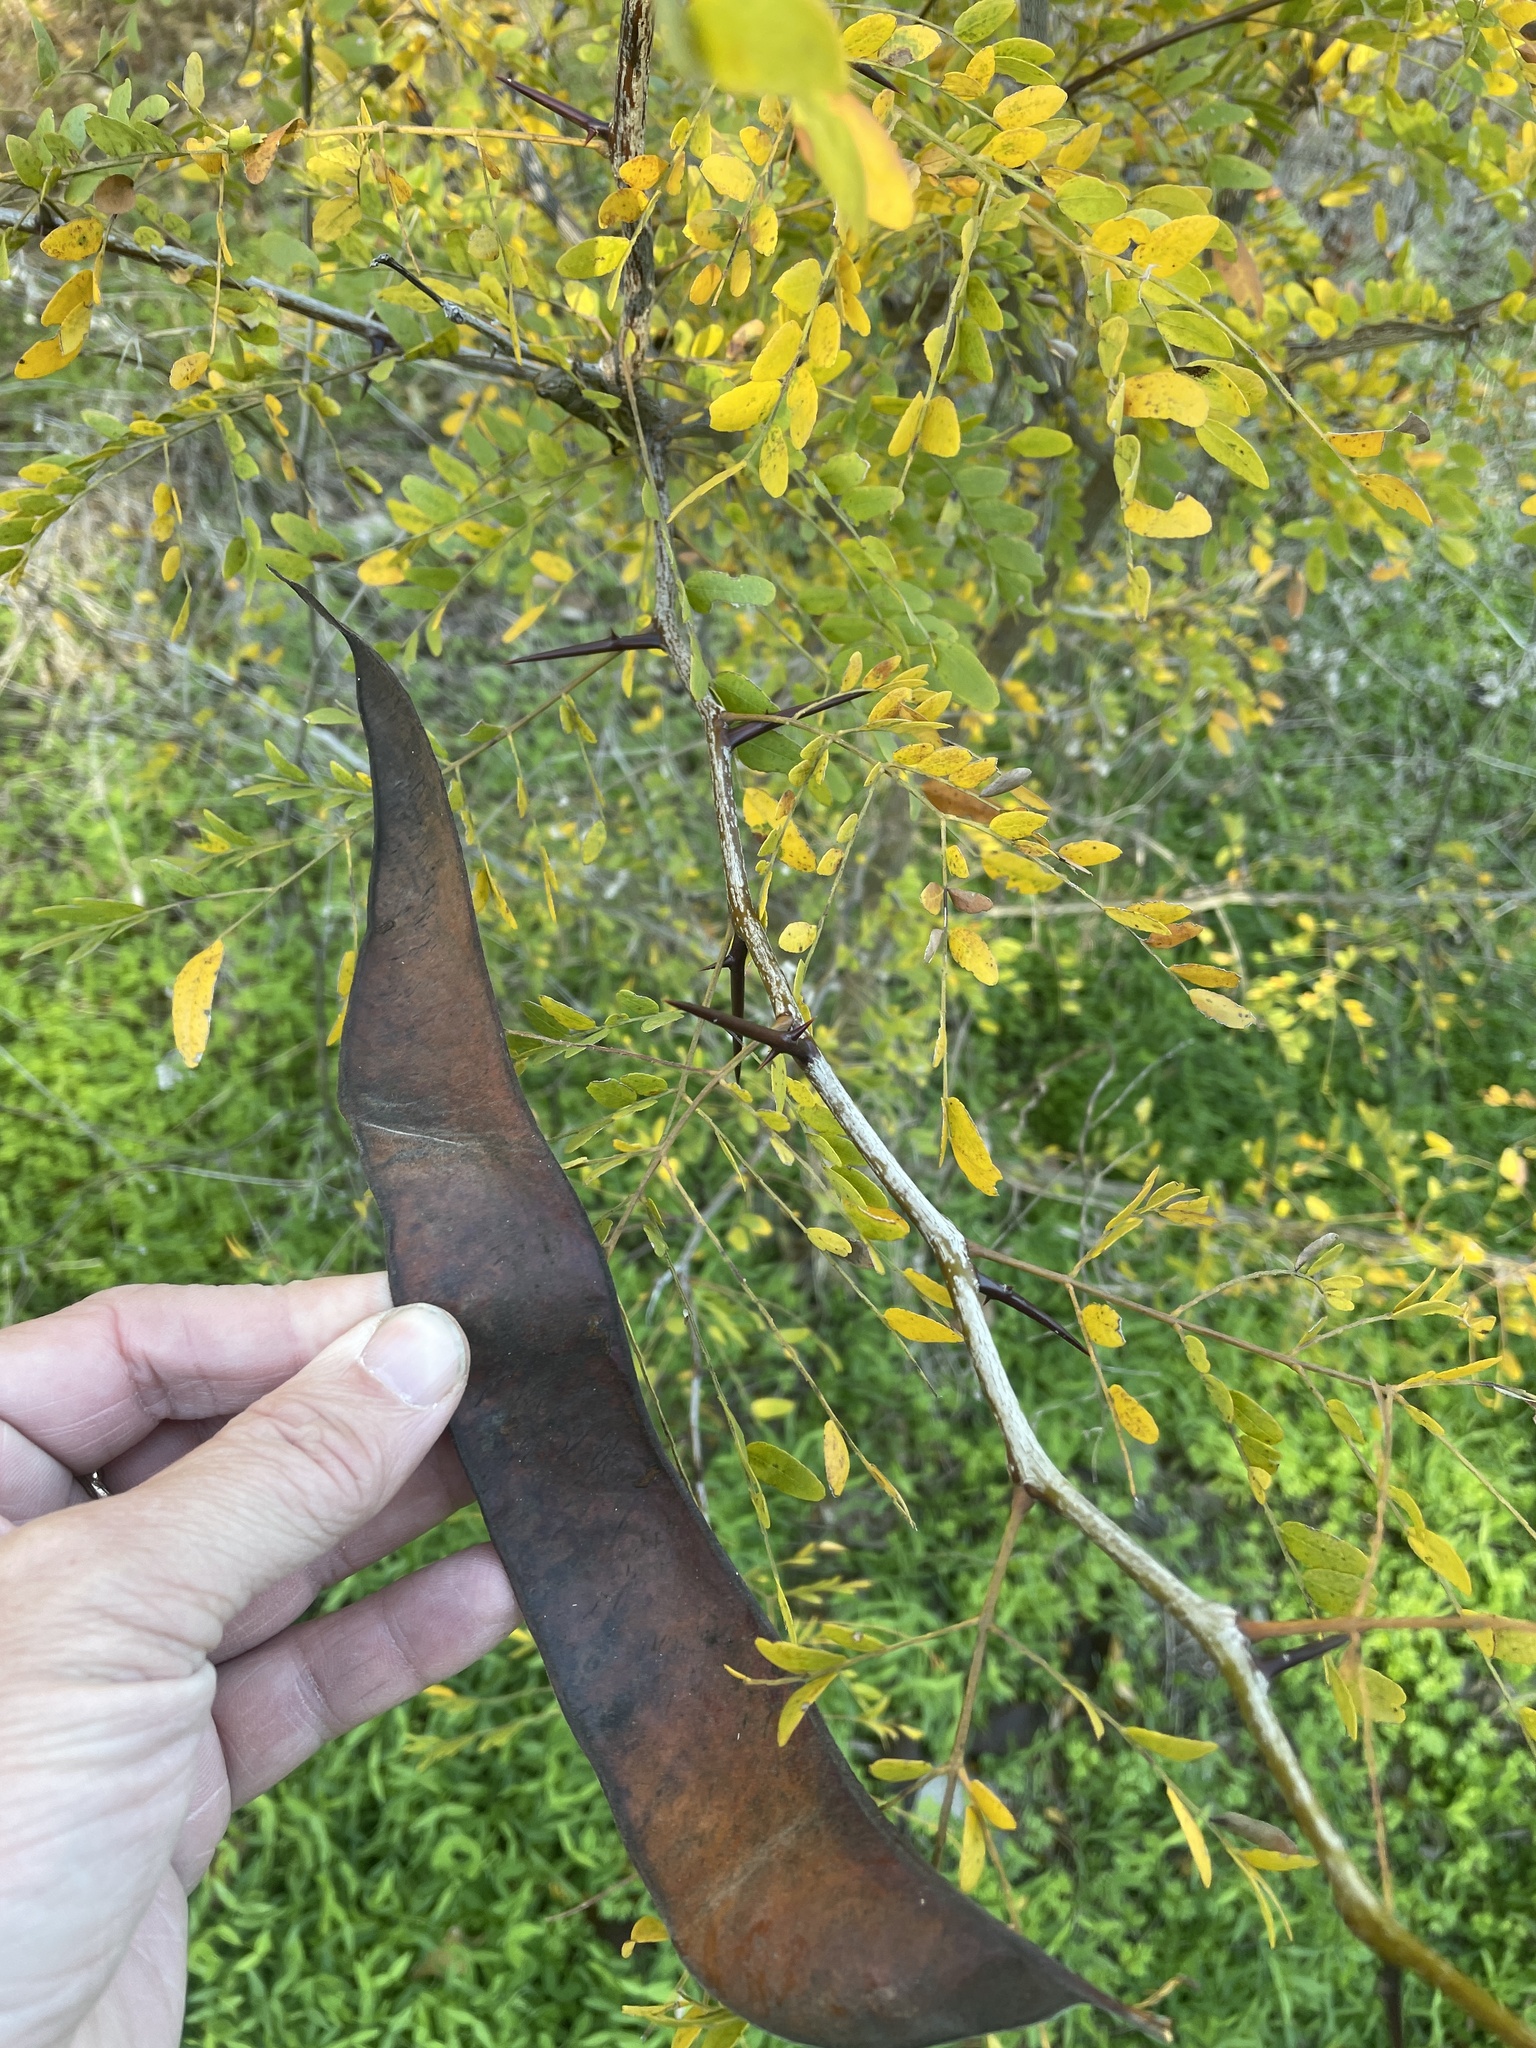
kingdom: Plantae
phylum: Tracheophyta
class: Magnoliopsida
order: Fabales
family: Fabaceae
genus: Gleditsia
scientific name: Gleditsia triacanthos
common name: Common honeylocust
